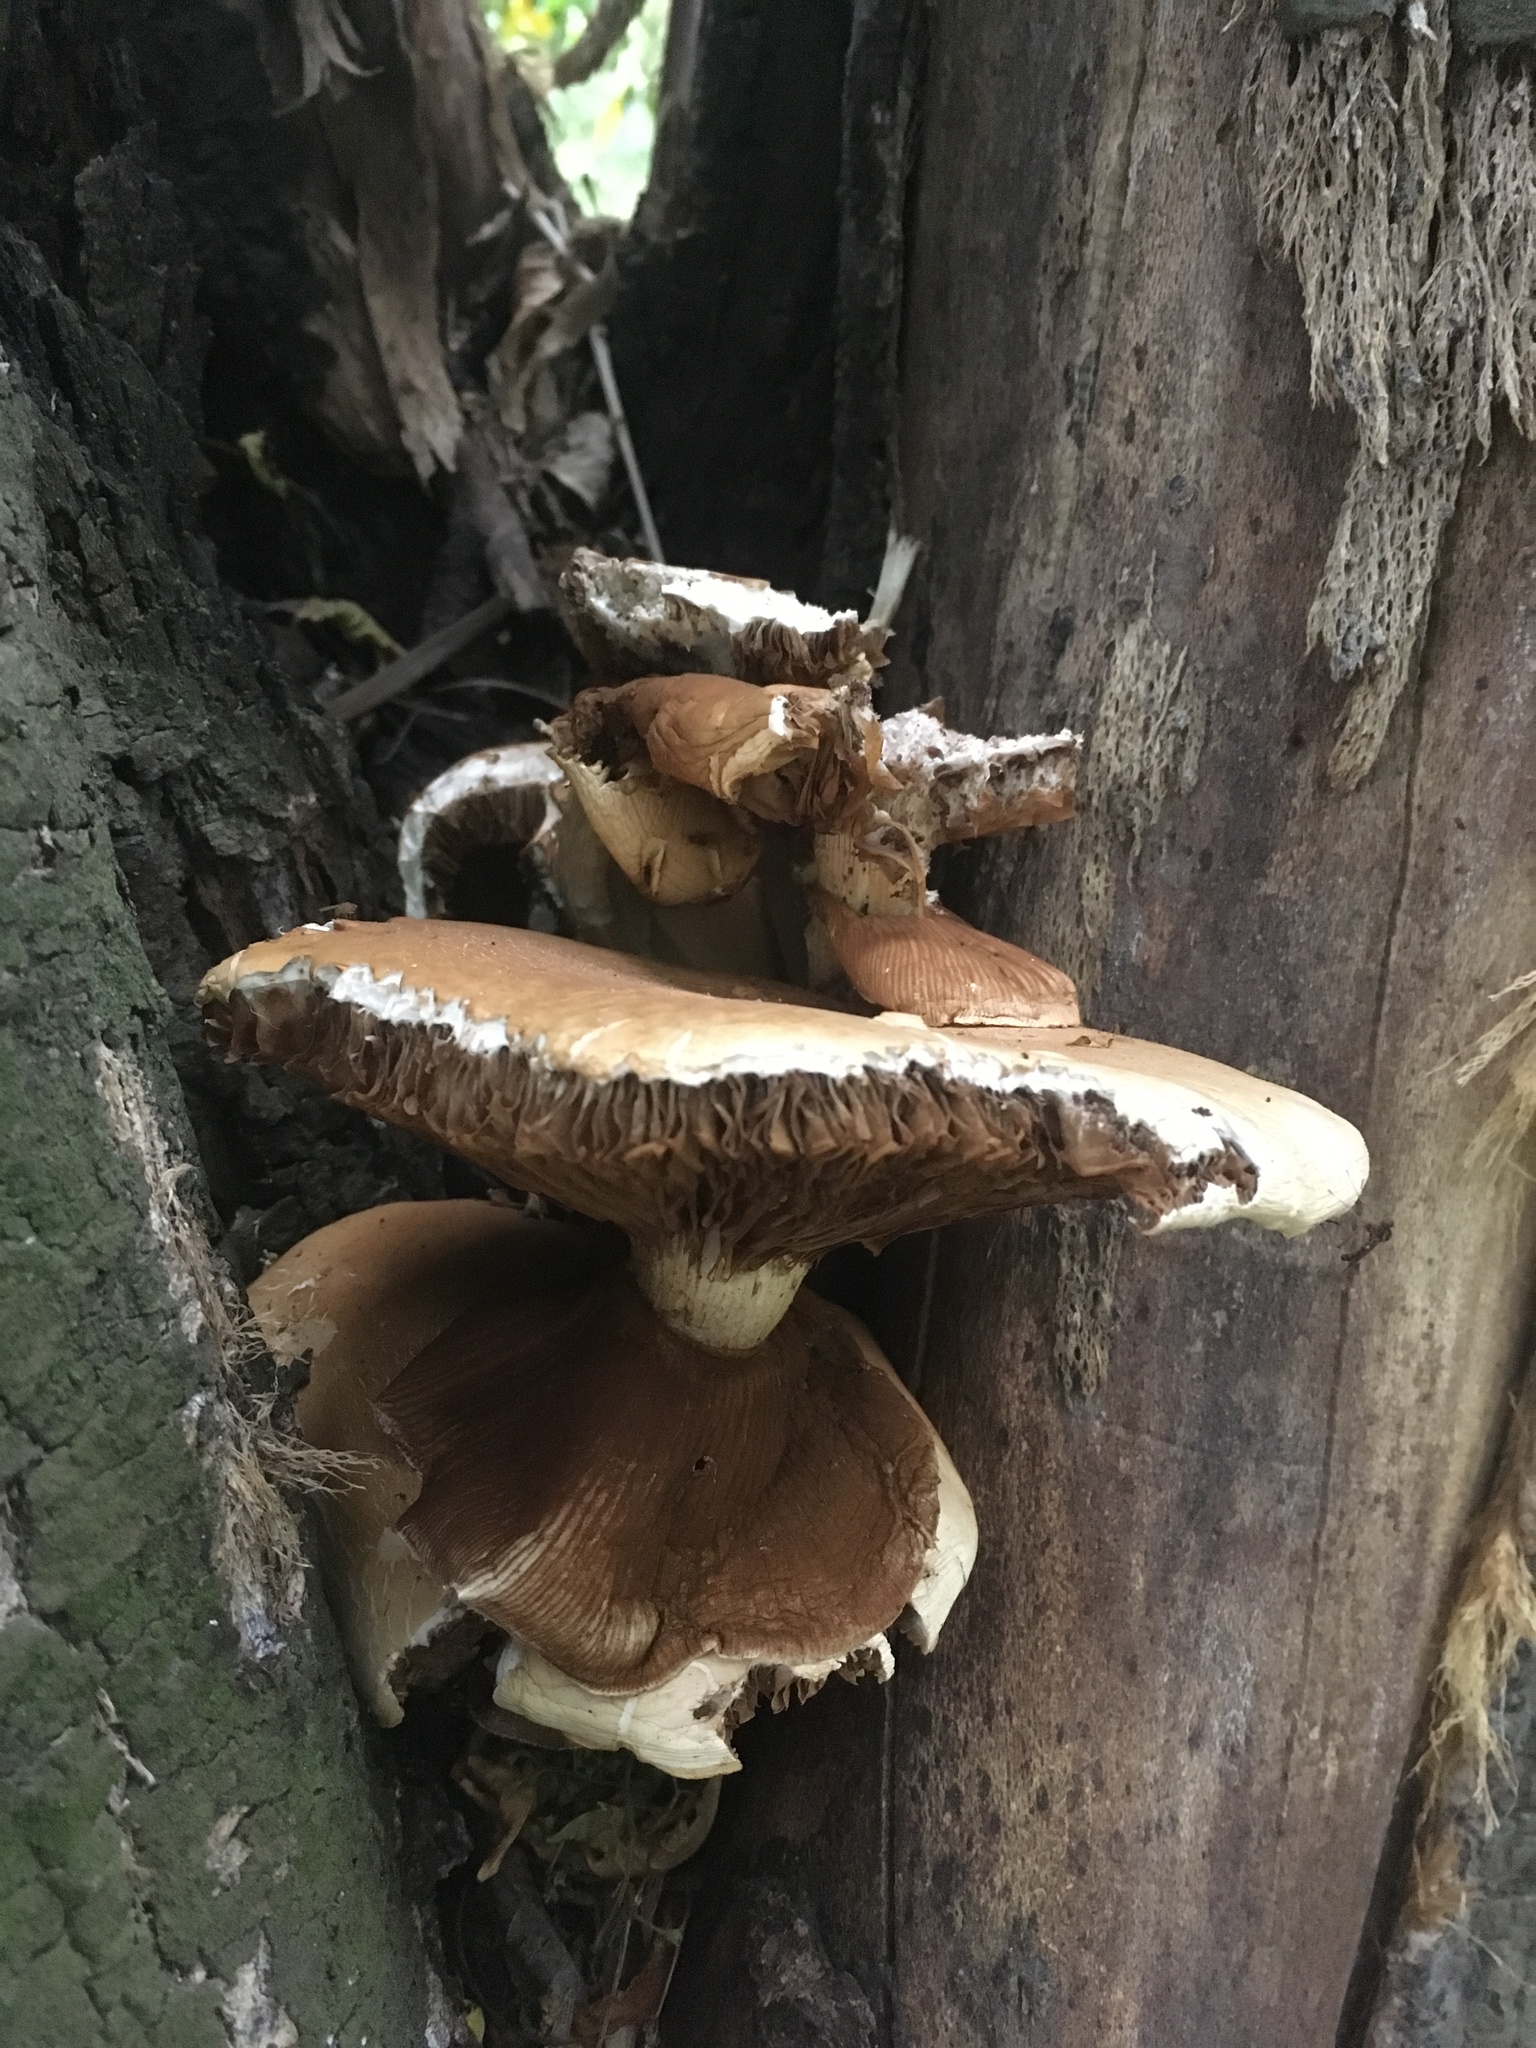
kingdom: Fungi
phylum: Basidiomycota
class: Agaricomycetes
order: Agaricales
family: Tubariaceae
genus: Cyclocybe
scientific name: Cyclocybe parasitica
